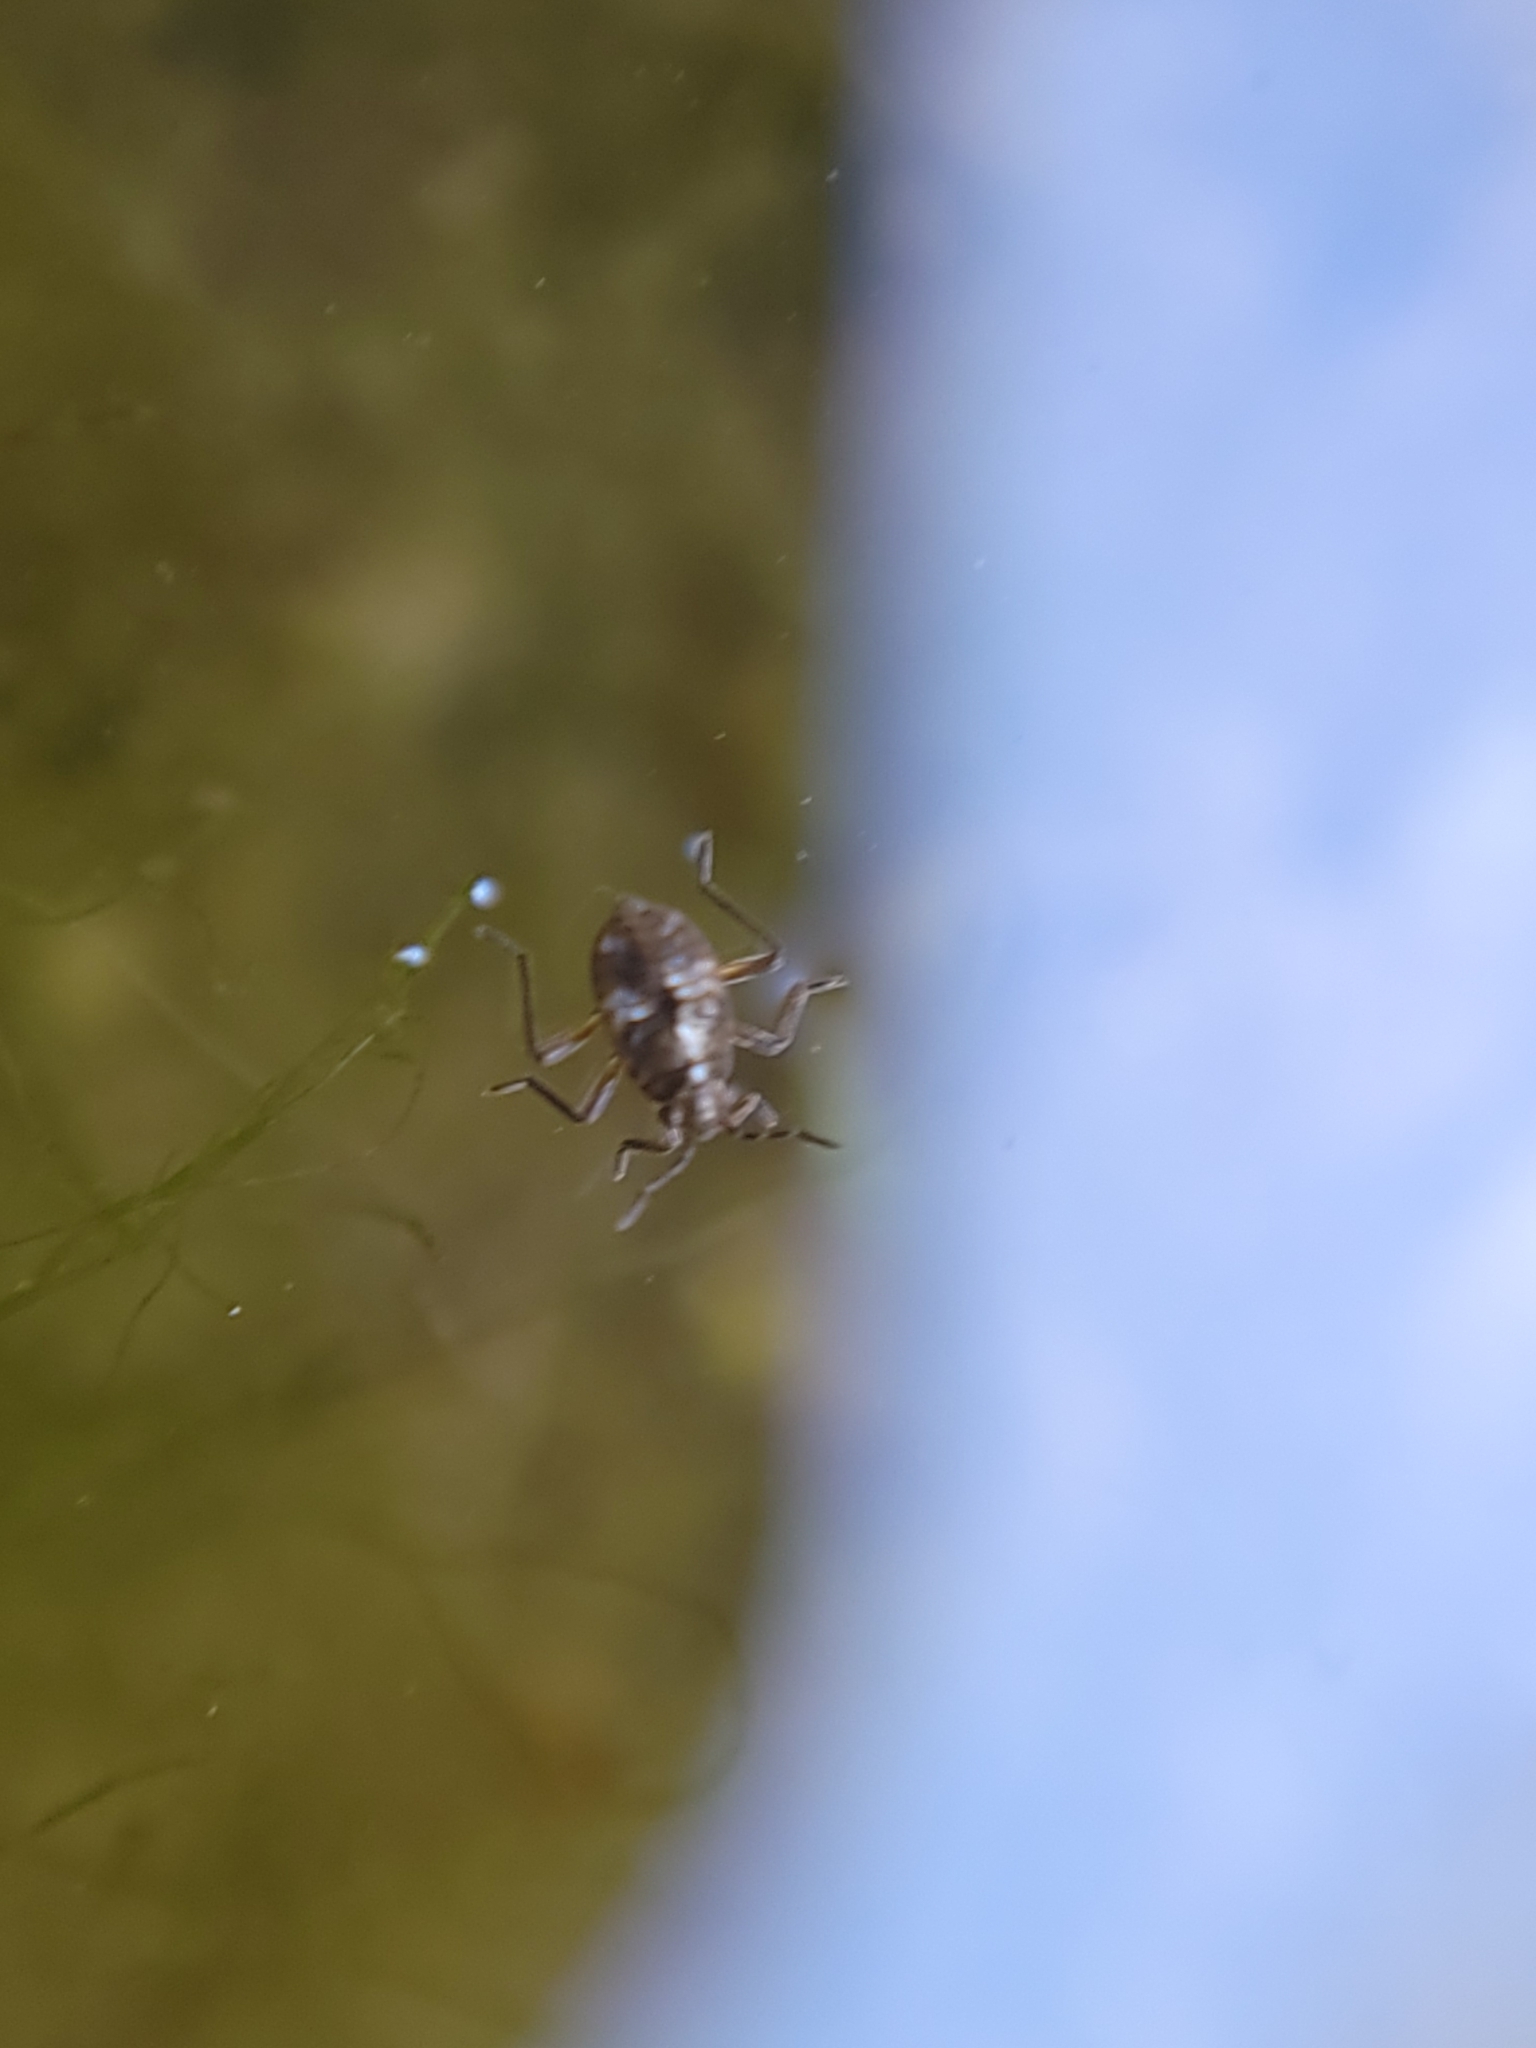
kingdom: Animalia
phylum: Arthropoda
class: Insecta
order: Hemiptera
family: Veliidae
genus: Microvelia
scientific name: Microvelia
